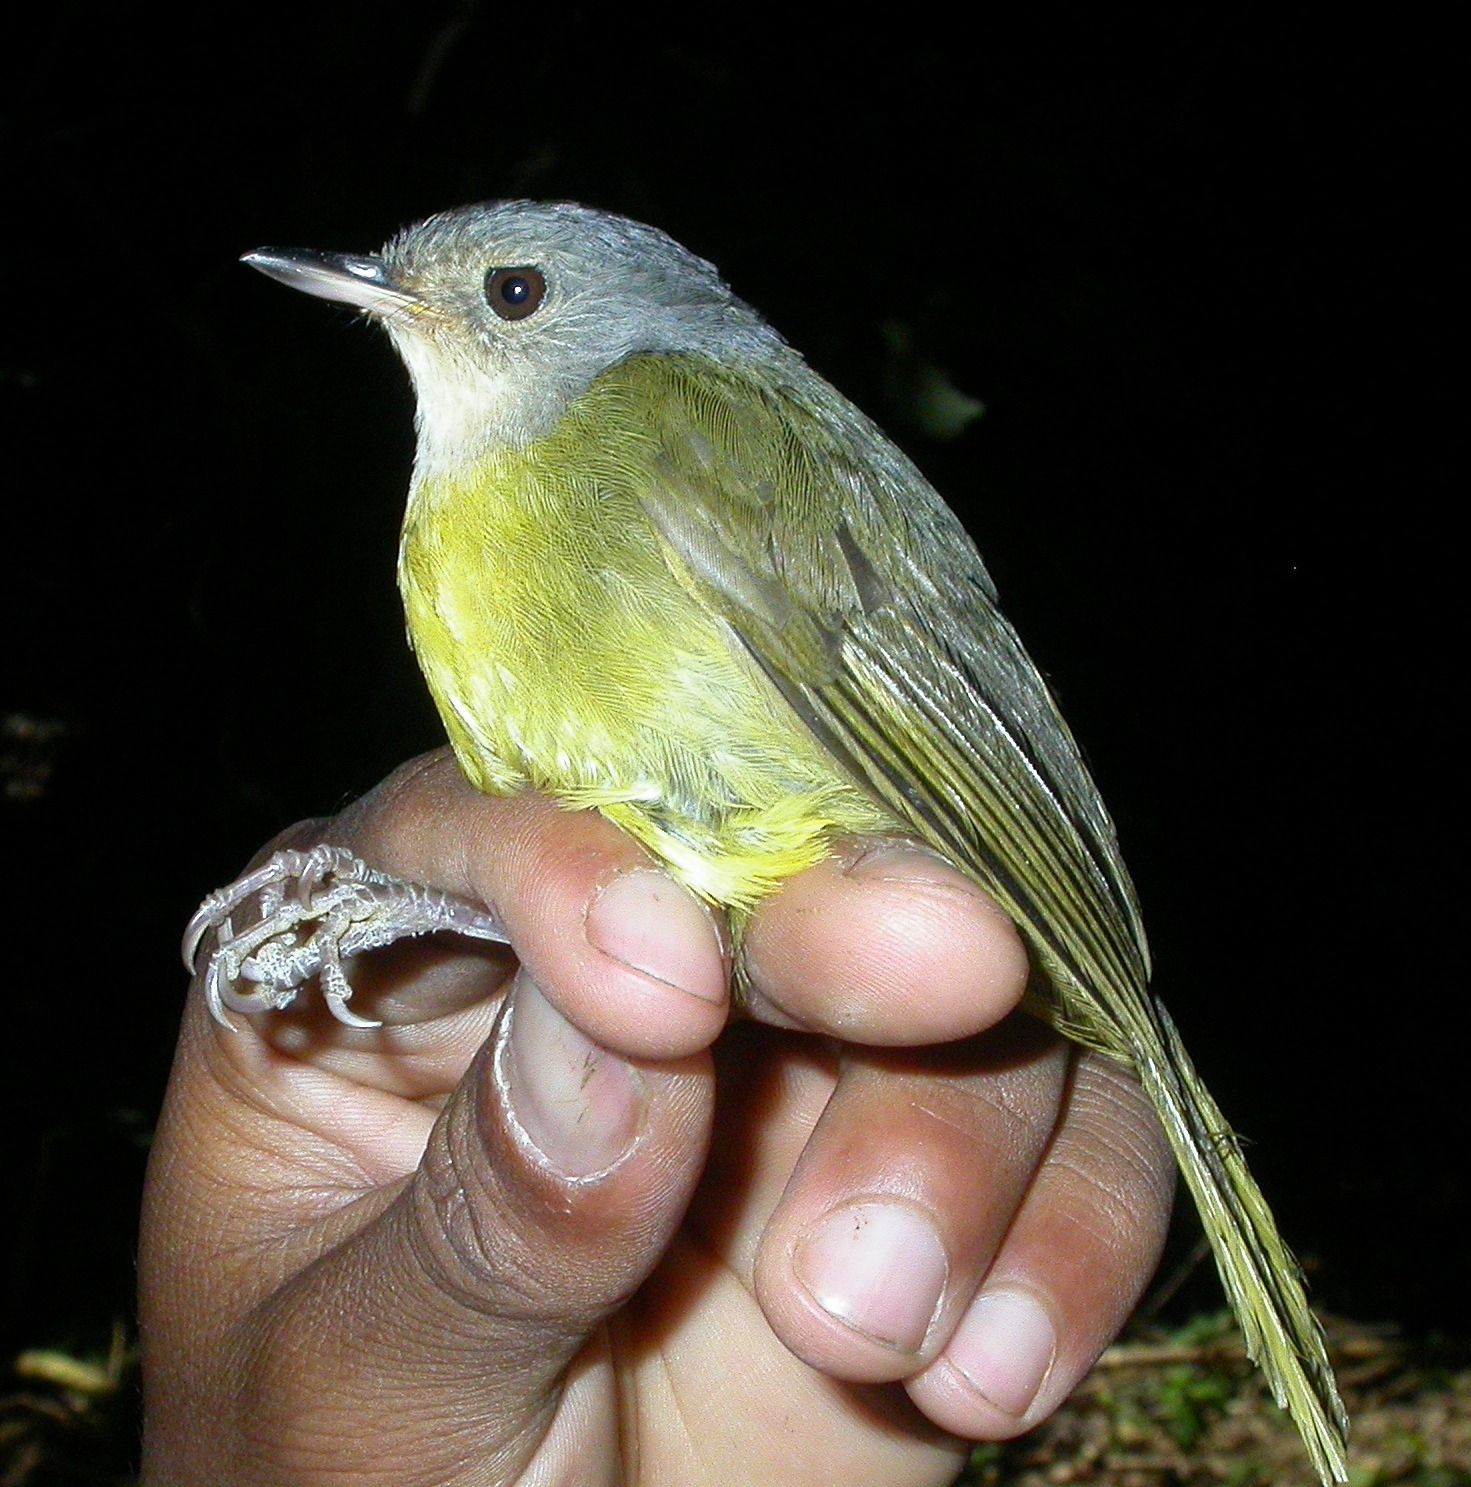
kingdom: Animalia
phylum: Chordata
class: Aves
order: Passeriformes
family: Bernieridae
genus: Xanthomixis
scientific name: Xanthomixis cinereiceps
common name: Grey-crowned tetraka
